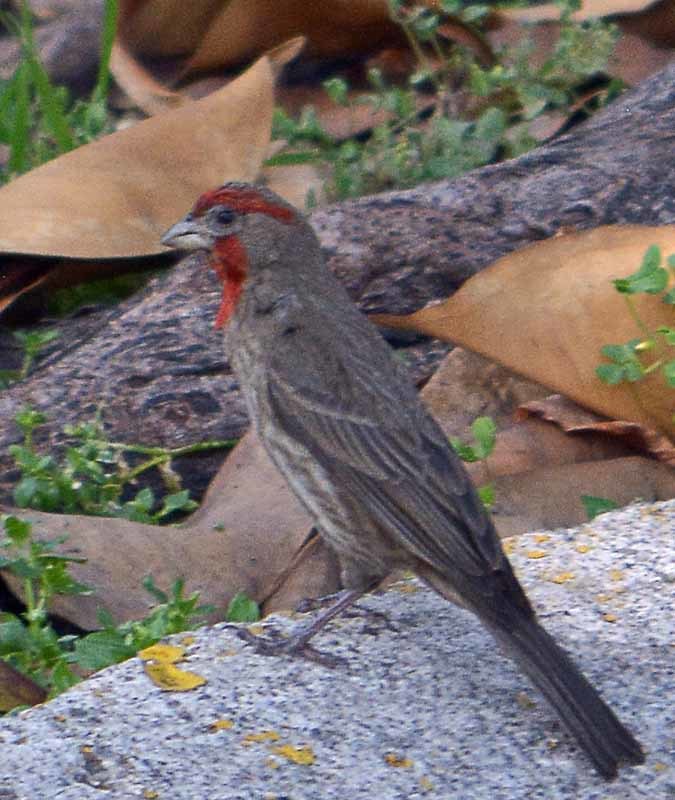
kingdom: Animalia
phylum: Chordata
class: Aves
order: Passeriformes
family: Fringillidae
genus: Haemorhous
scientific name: Haemorhous mexicanus
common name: House finch
